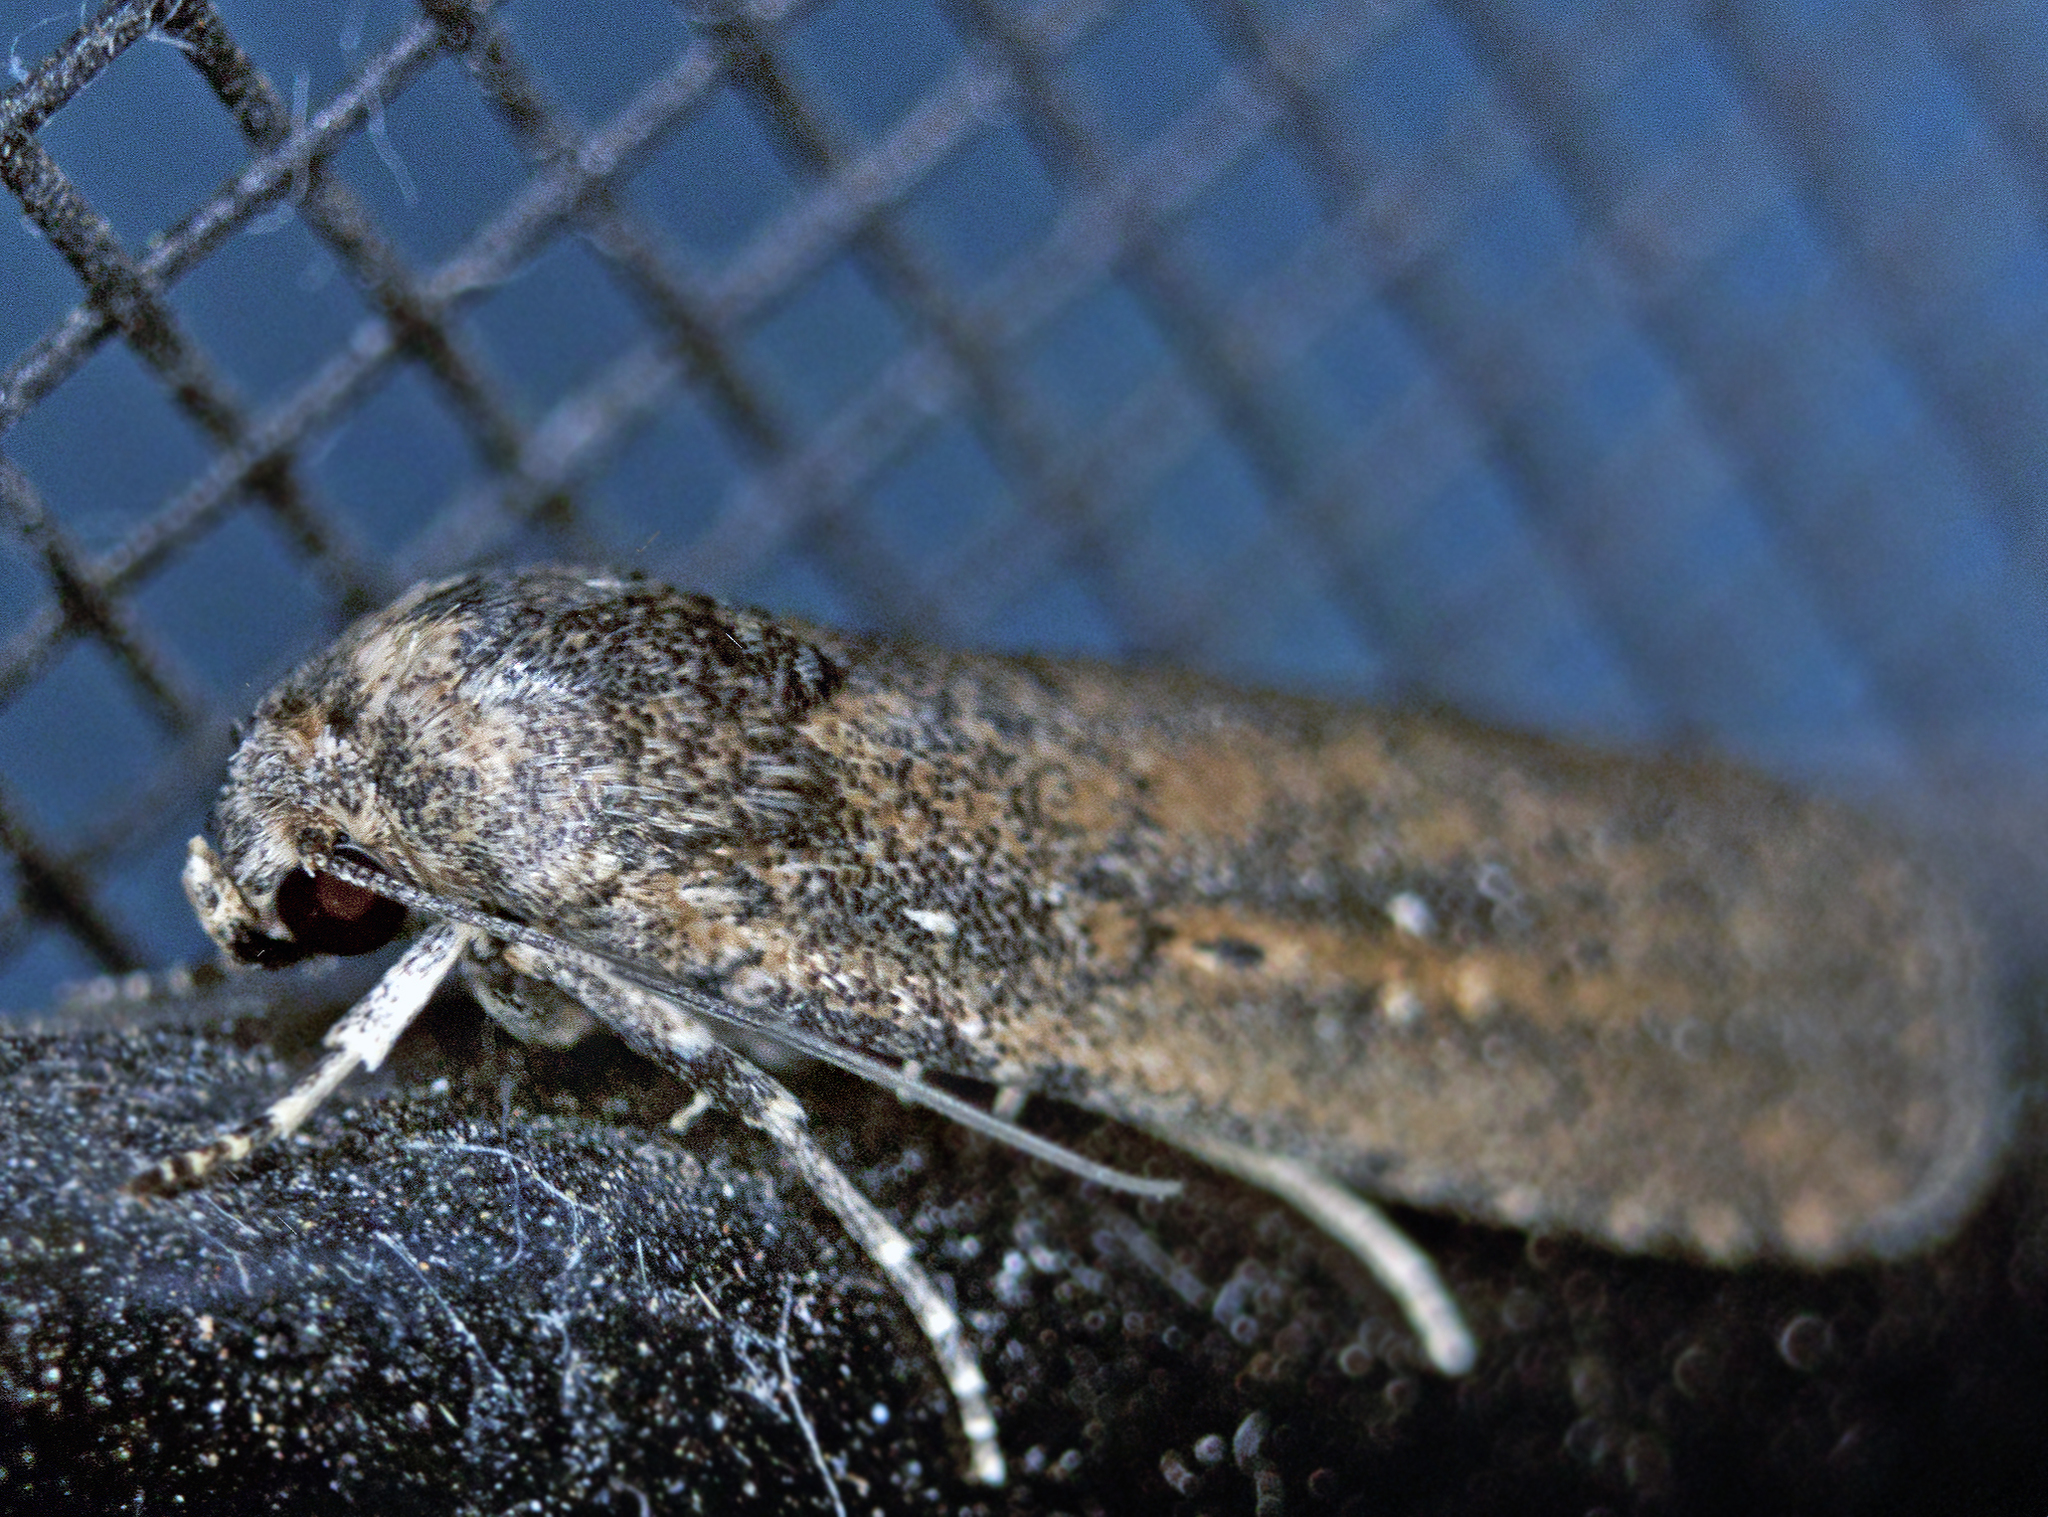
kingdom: Animalia
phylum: Arthropoda
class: Insecta
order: Lepidoptera
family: Noctuidae
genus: Athetis
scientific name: Athetis tenuis
